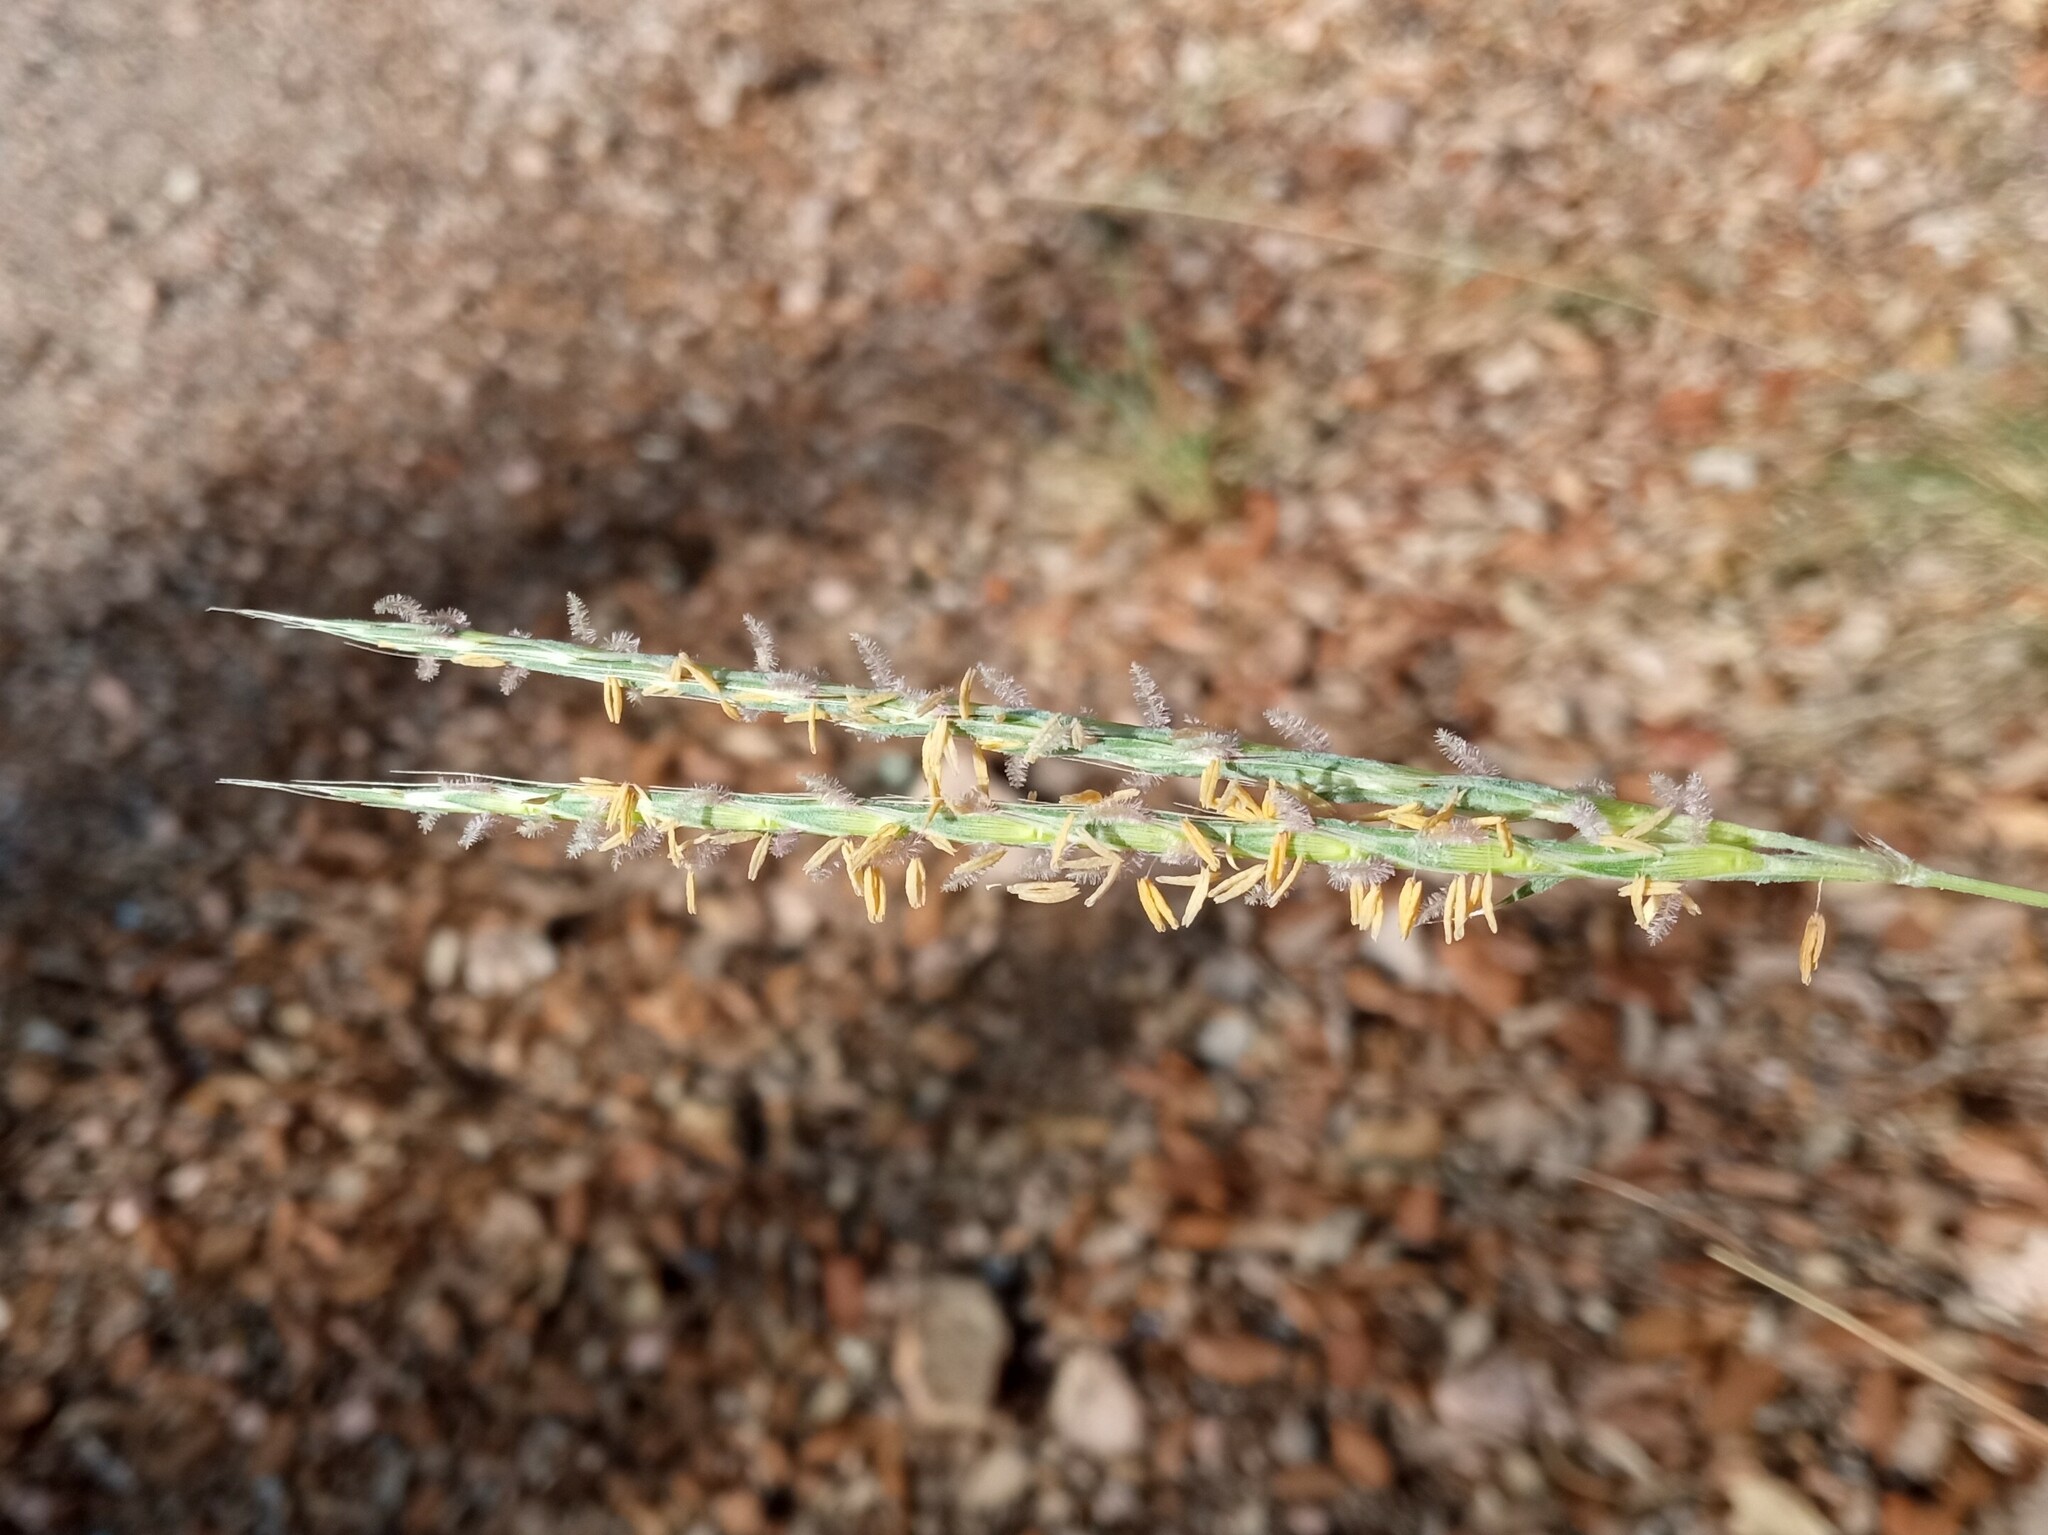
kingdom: Plantae
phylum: Tracheophyta
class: Liliopsida
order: Poales
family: Poaceae
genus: Andropogon
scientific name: Andropogon distachyos
